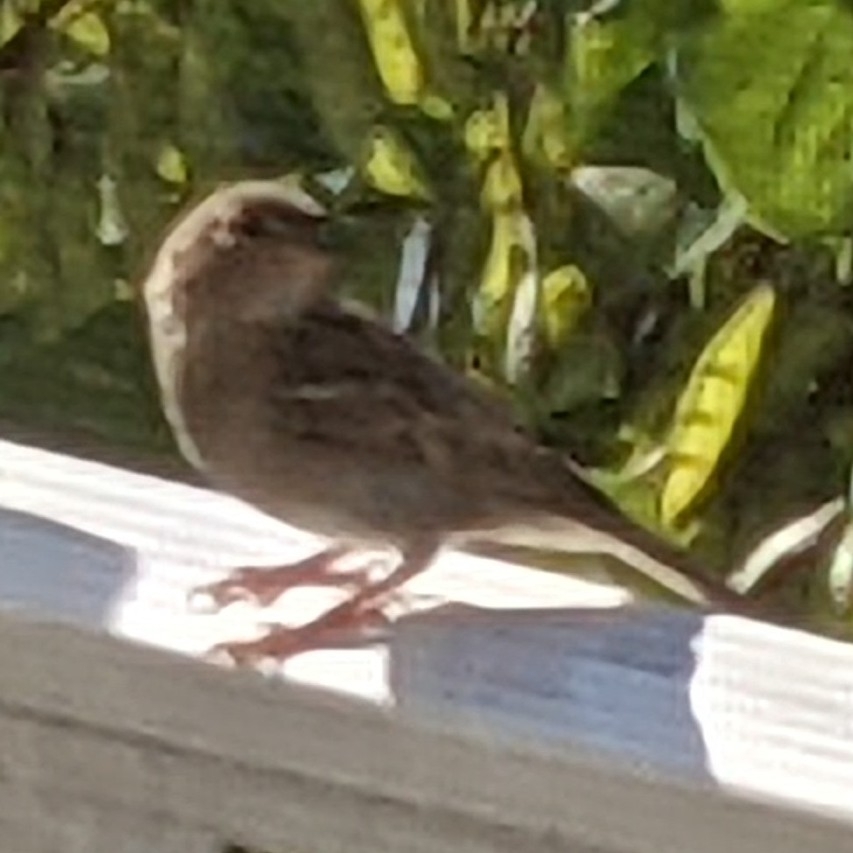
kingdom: Animalia
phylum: Chordata
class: Aves
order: Passeriformes
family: Passeridae
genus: Passer
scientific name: Passer domesticus
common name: House sparrow
